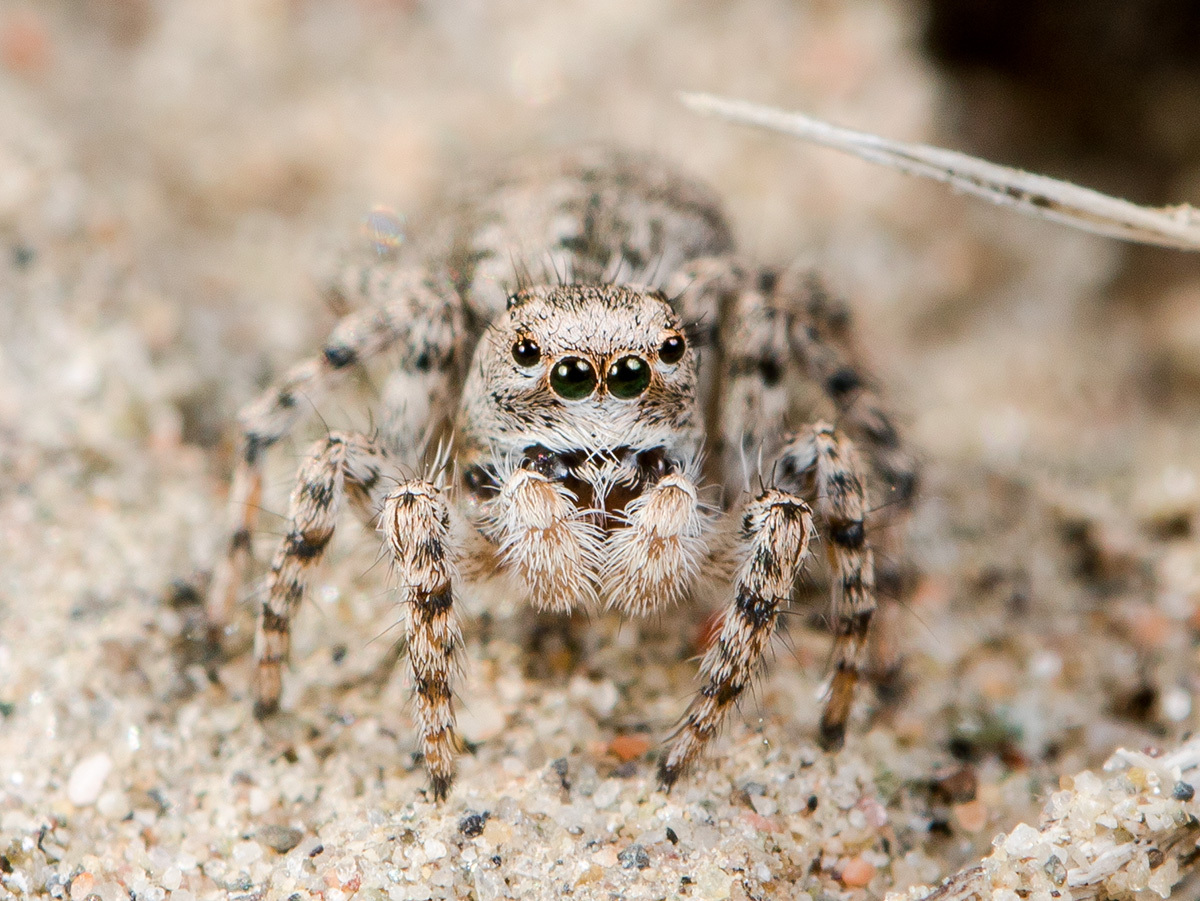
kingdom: Animalia
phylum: Arthropoda
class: Arachnida
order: Araneae
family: Salticidae
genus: Aelurillus
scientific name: Aelurillus dubatolovi
